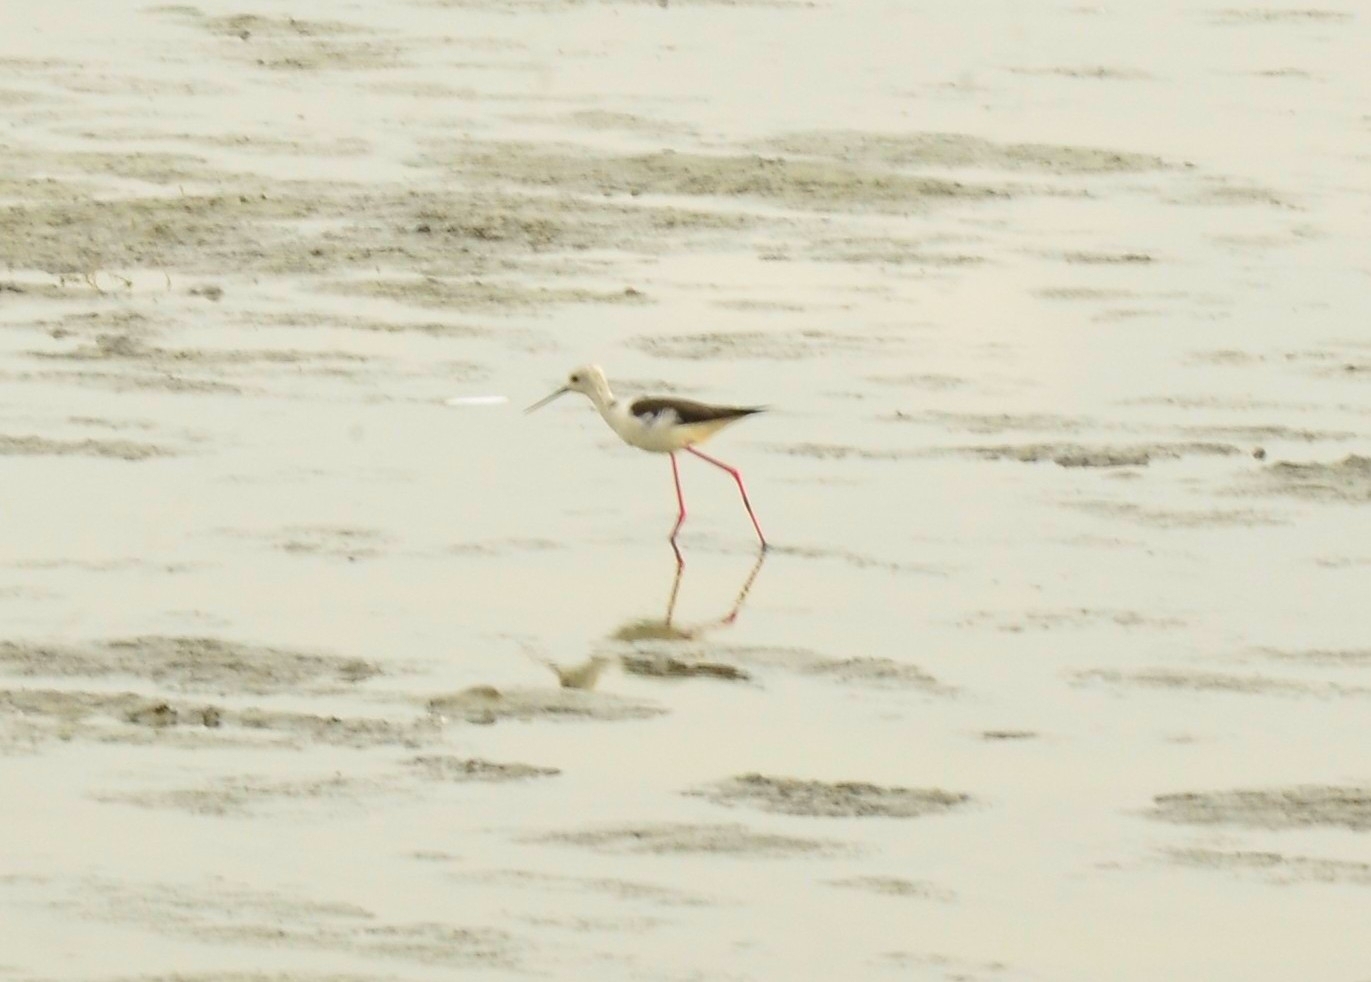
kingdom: Animalia
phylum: Chordata
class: Aves
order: Charadriiformes
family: Recurvirostridae
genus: Himantopus
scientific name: Himantopus himantopus
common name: Black-winged stilt
